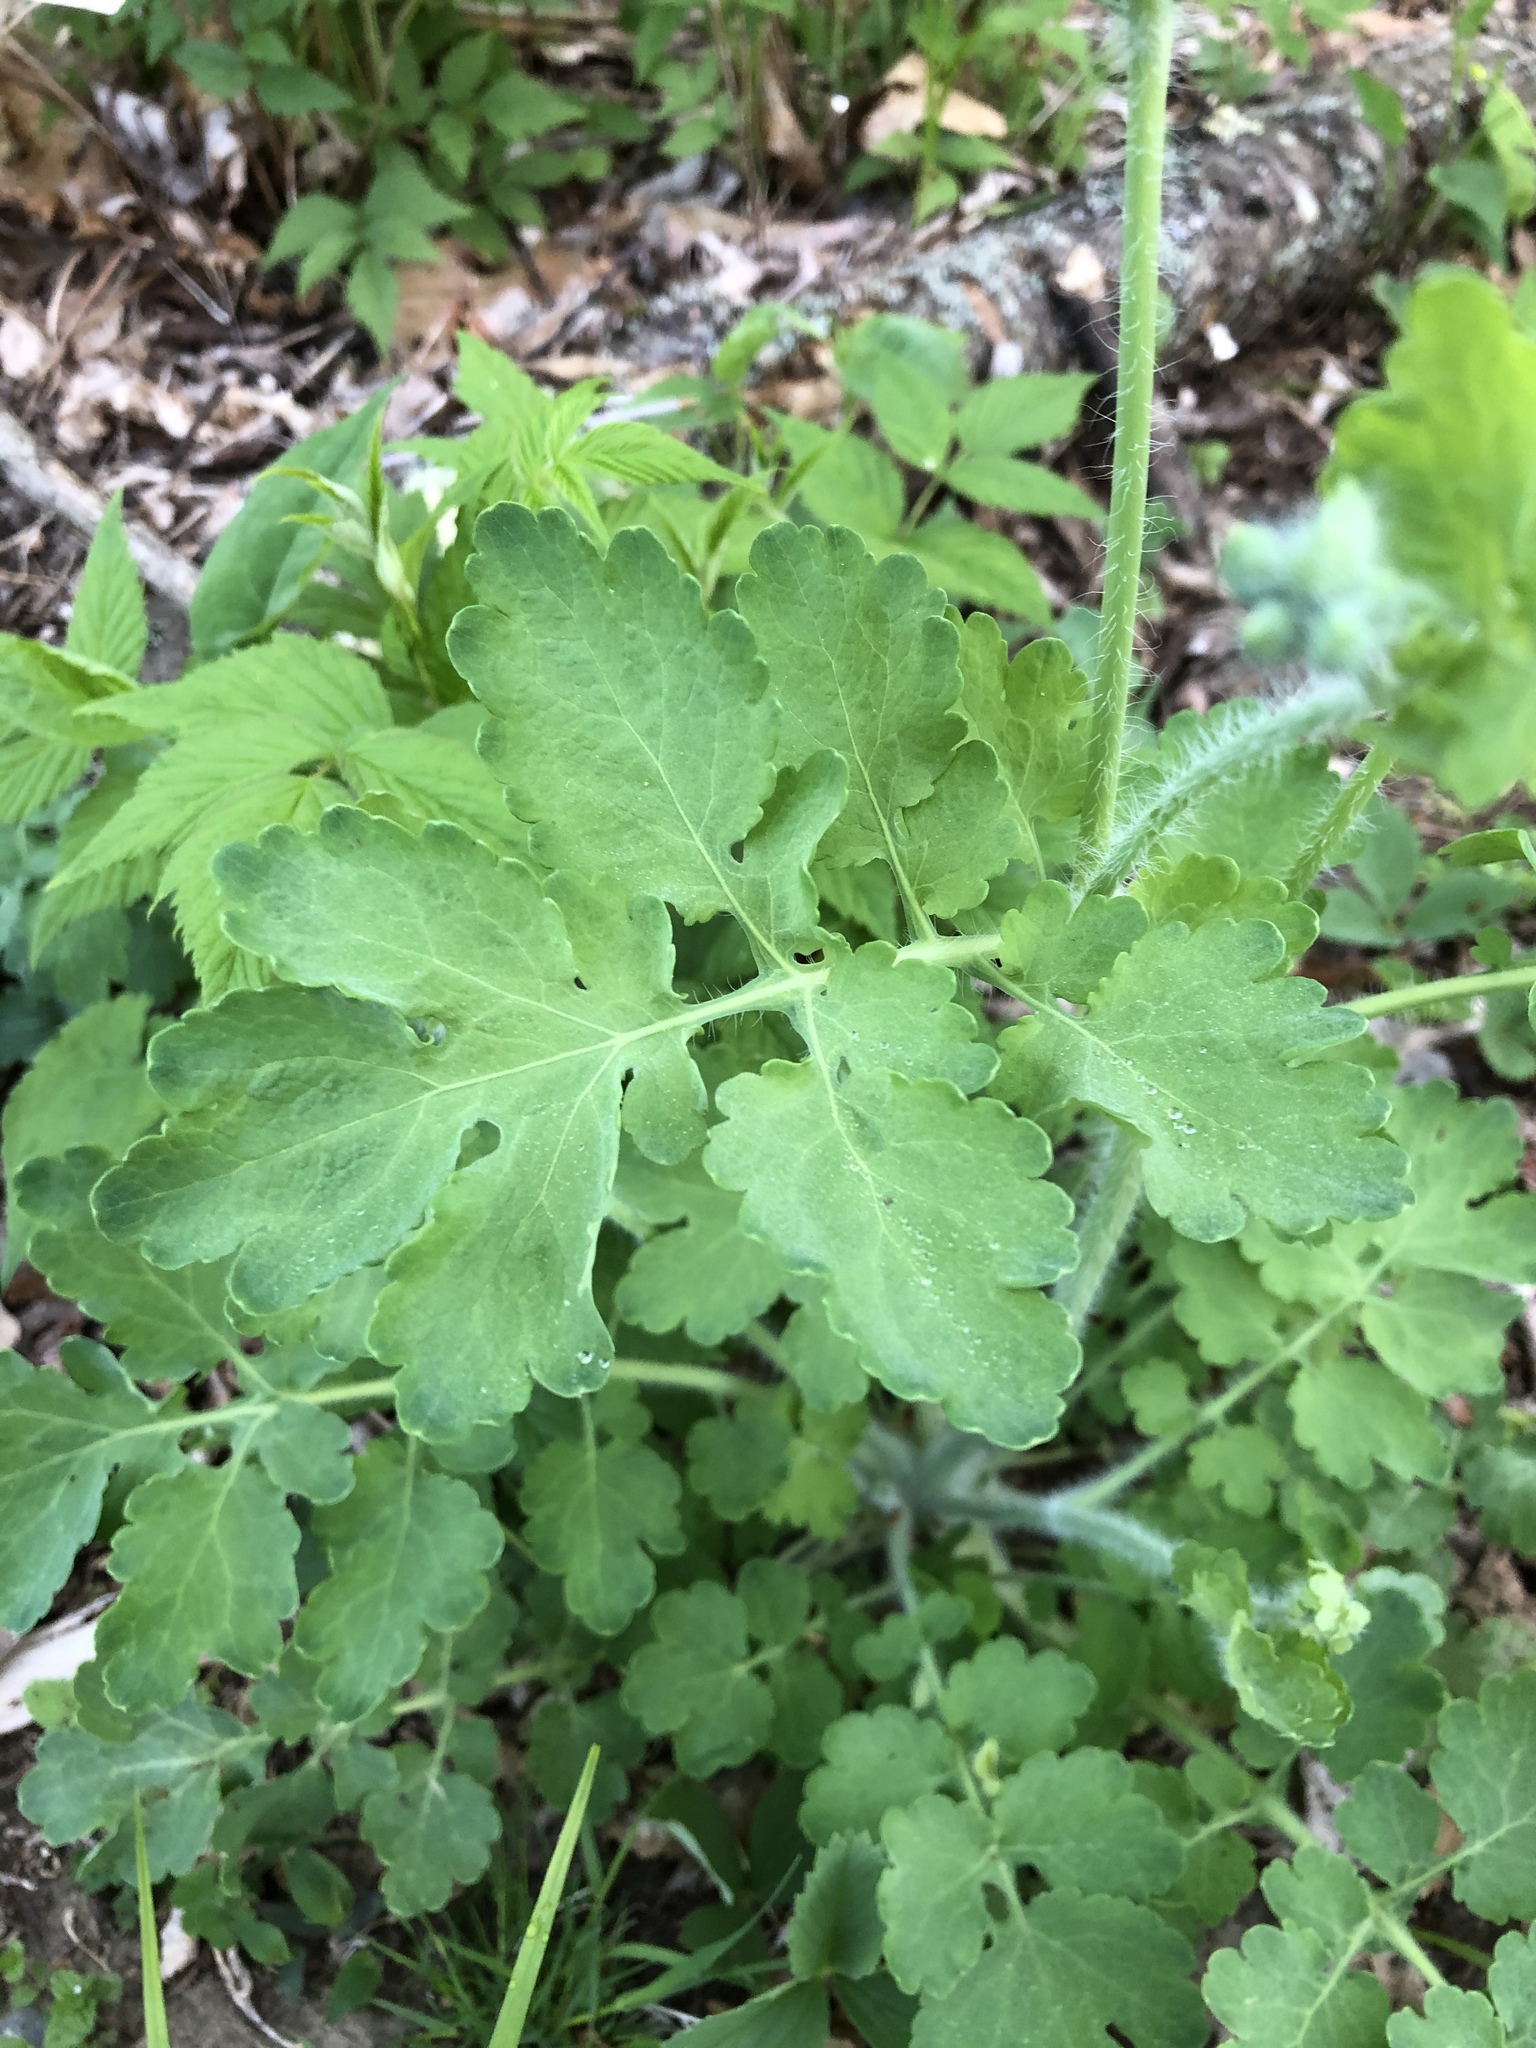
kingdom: Plantae
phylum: Tracheophyta
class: Magnoliopsida
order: Ranunculales
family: Papaveraceae
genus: Chelidonium
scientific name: Chelidonium majus
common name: Greater celandine
